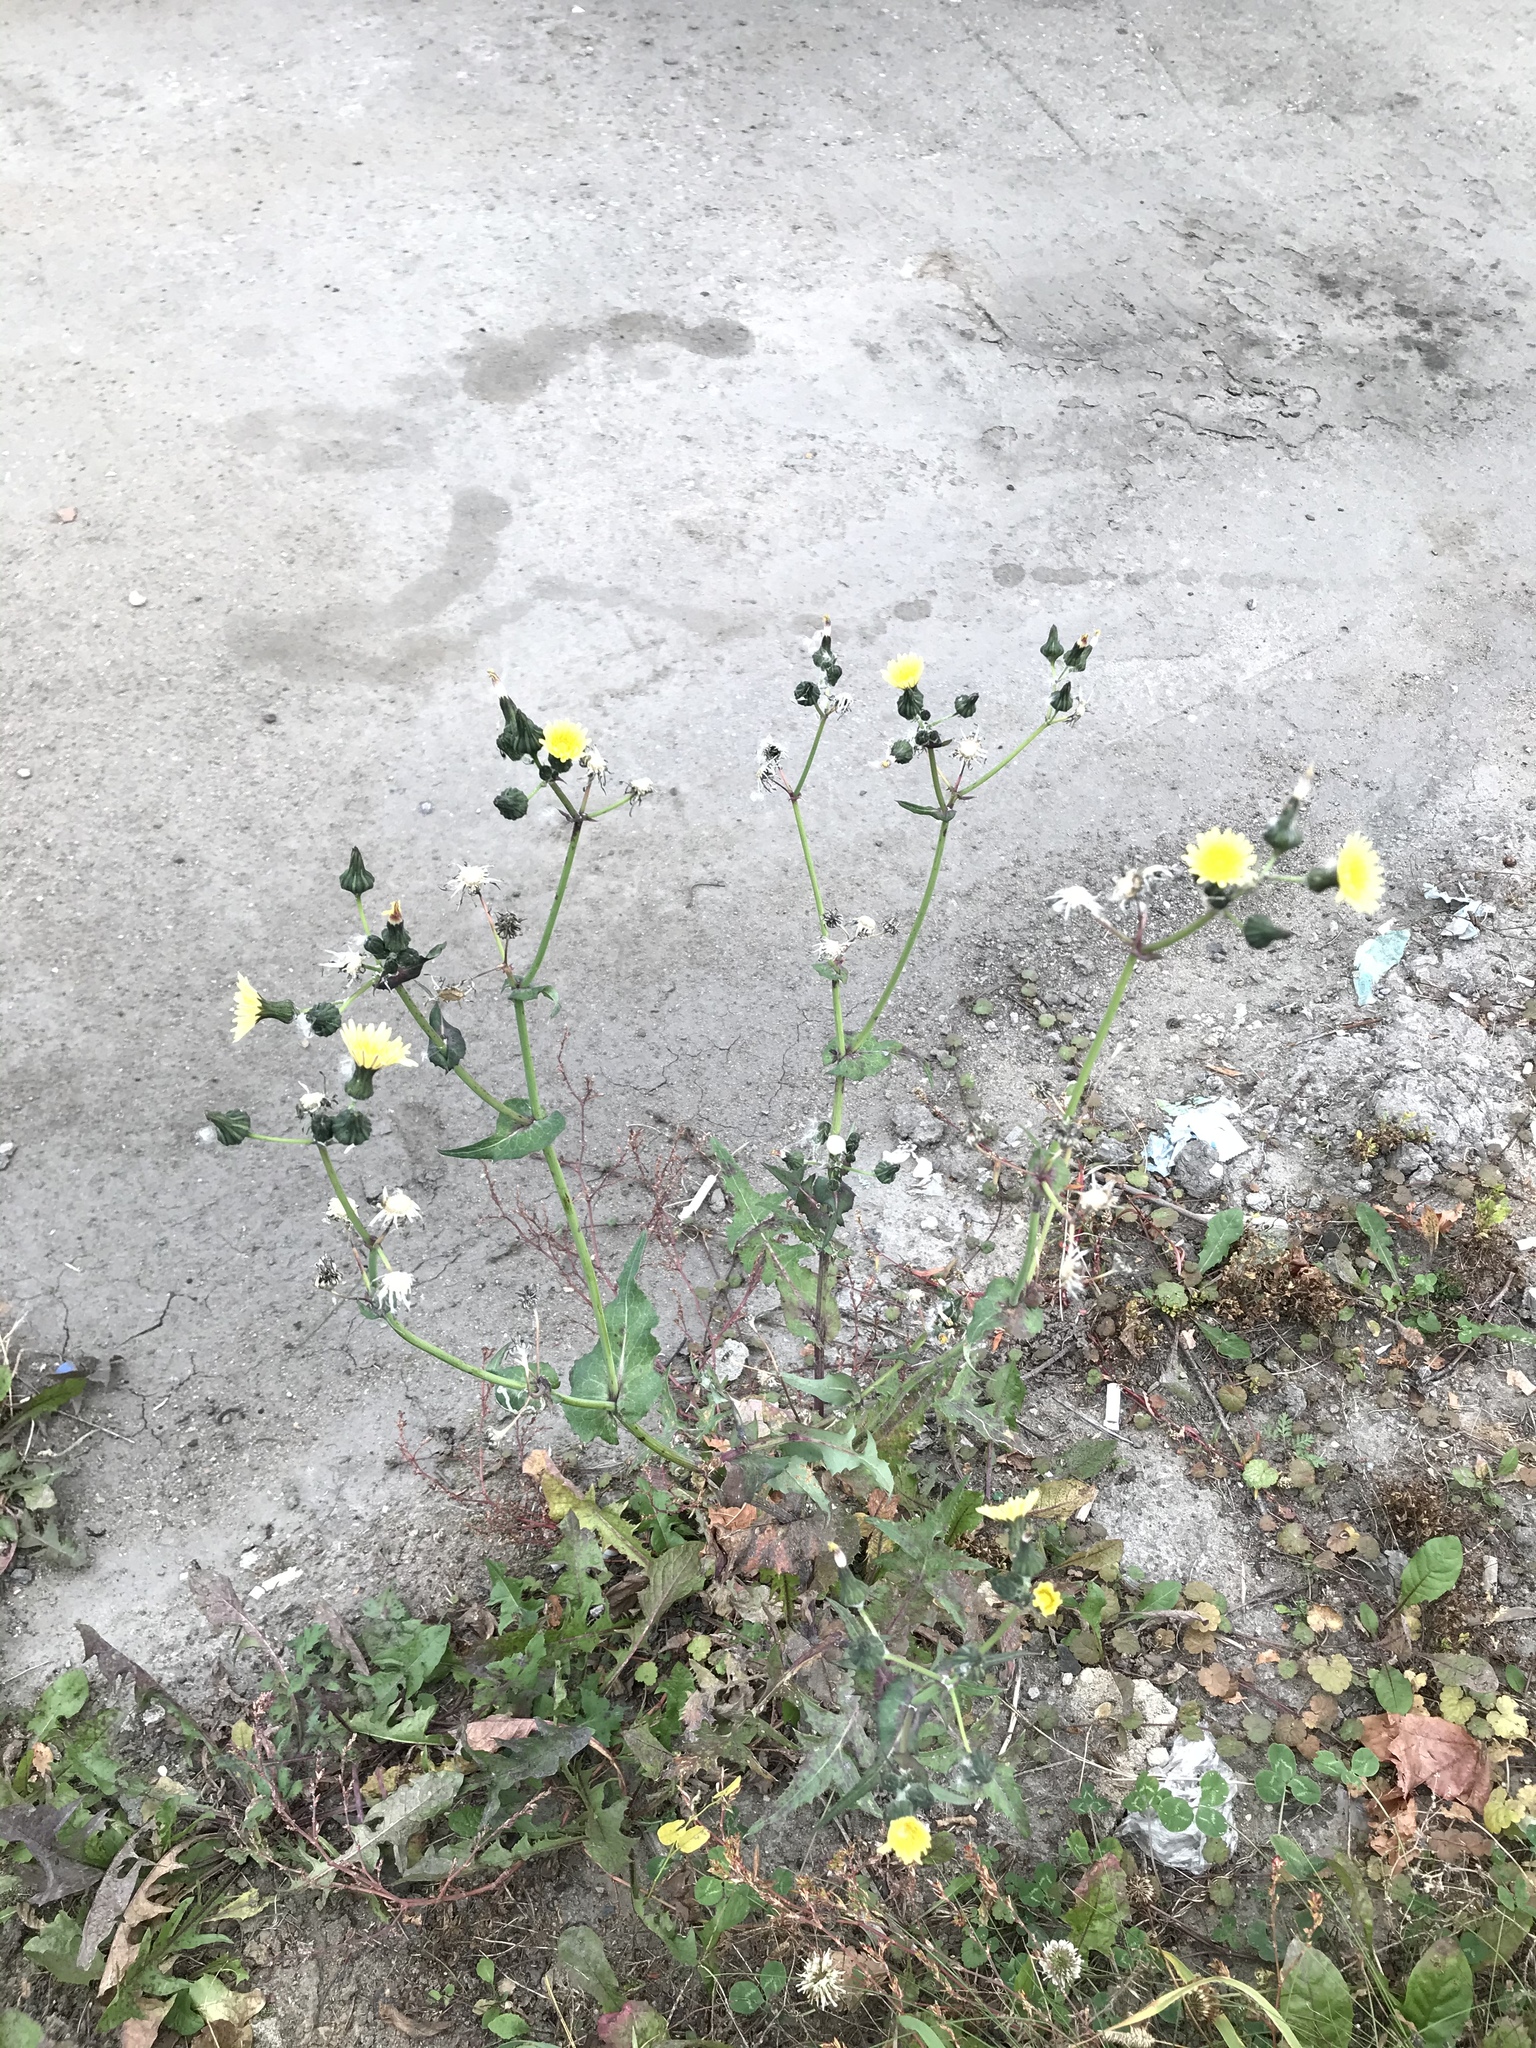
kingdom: Plantae
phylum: Tracheophyta
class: Magnoliopsida
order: Asterales
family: Asteraceae
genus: Sonchus
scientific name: Sonchus oleraceus
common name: Common sowthistle
